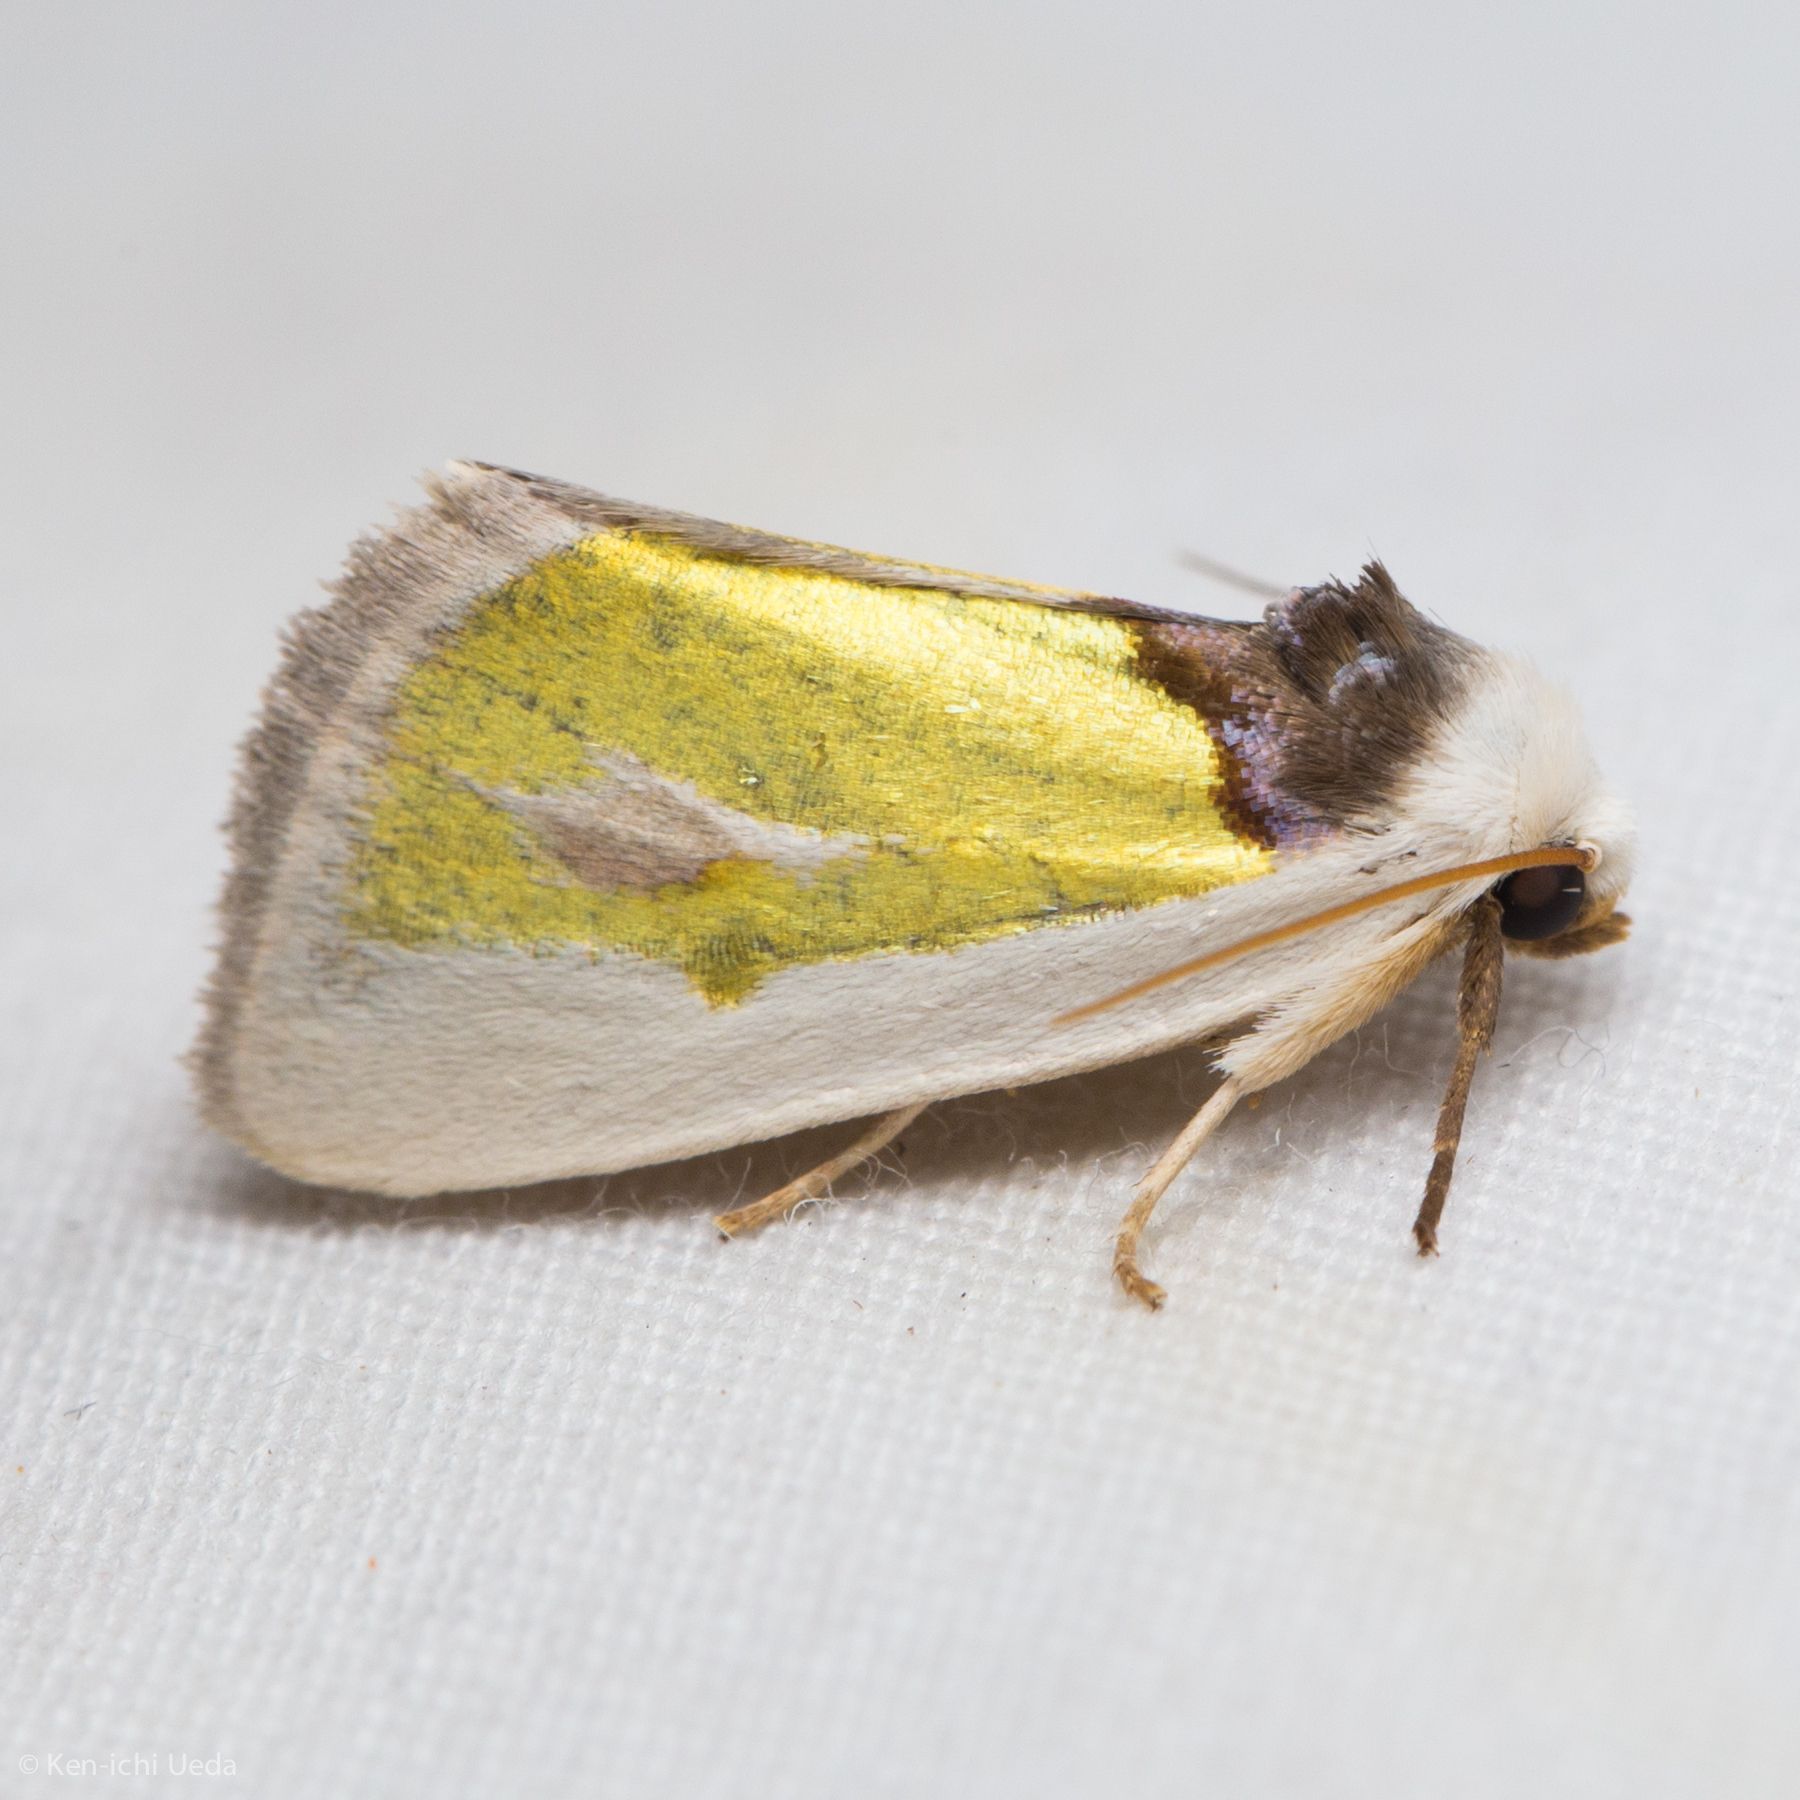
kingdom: Animalia
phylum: Arthropoda
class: Insecta
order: Lepidoptera
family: Noctuidae
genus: Neumoegenia
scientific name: Neumoegenia poetica
